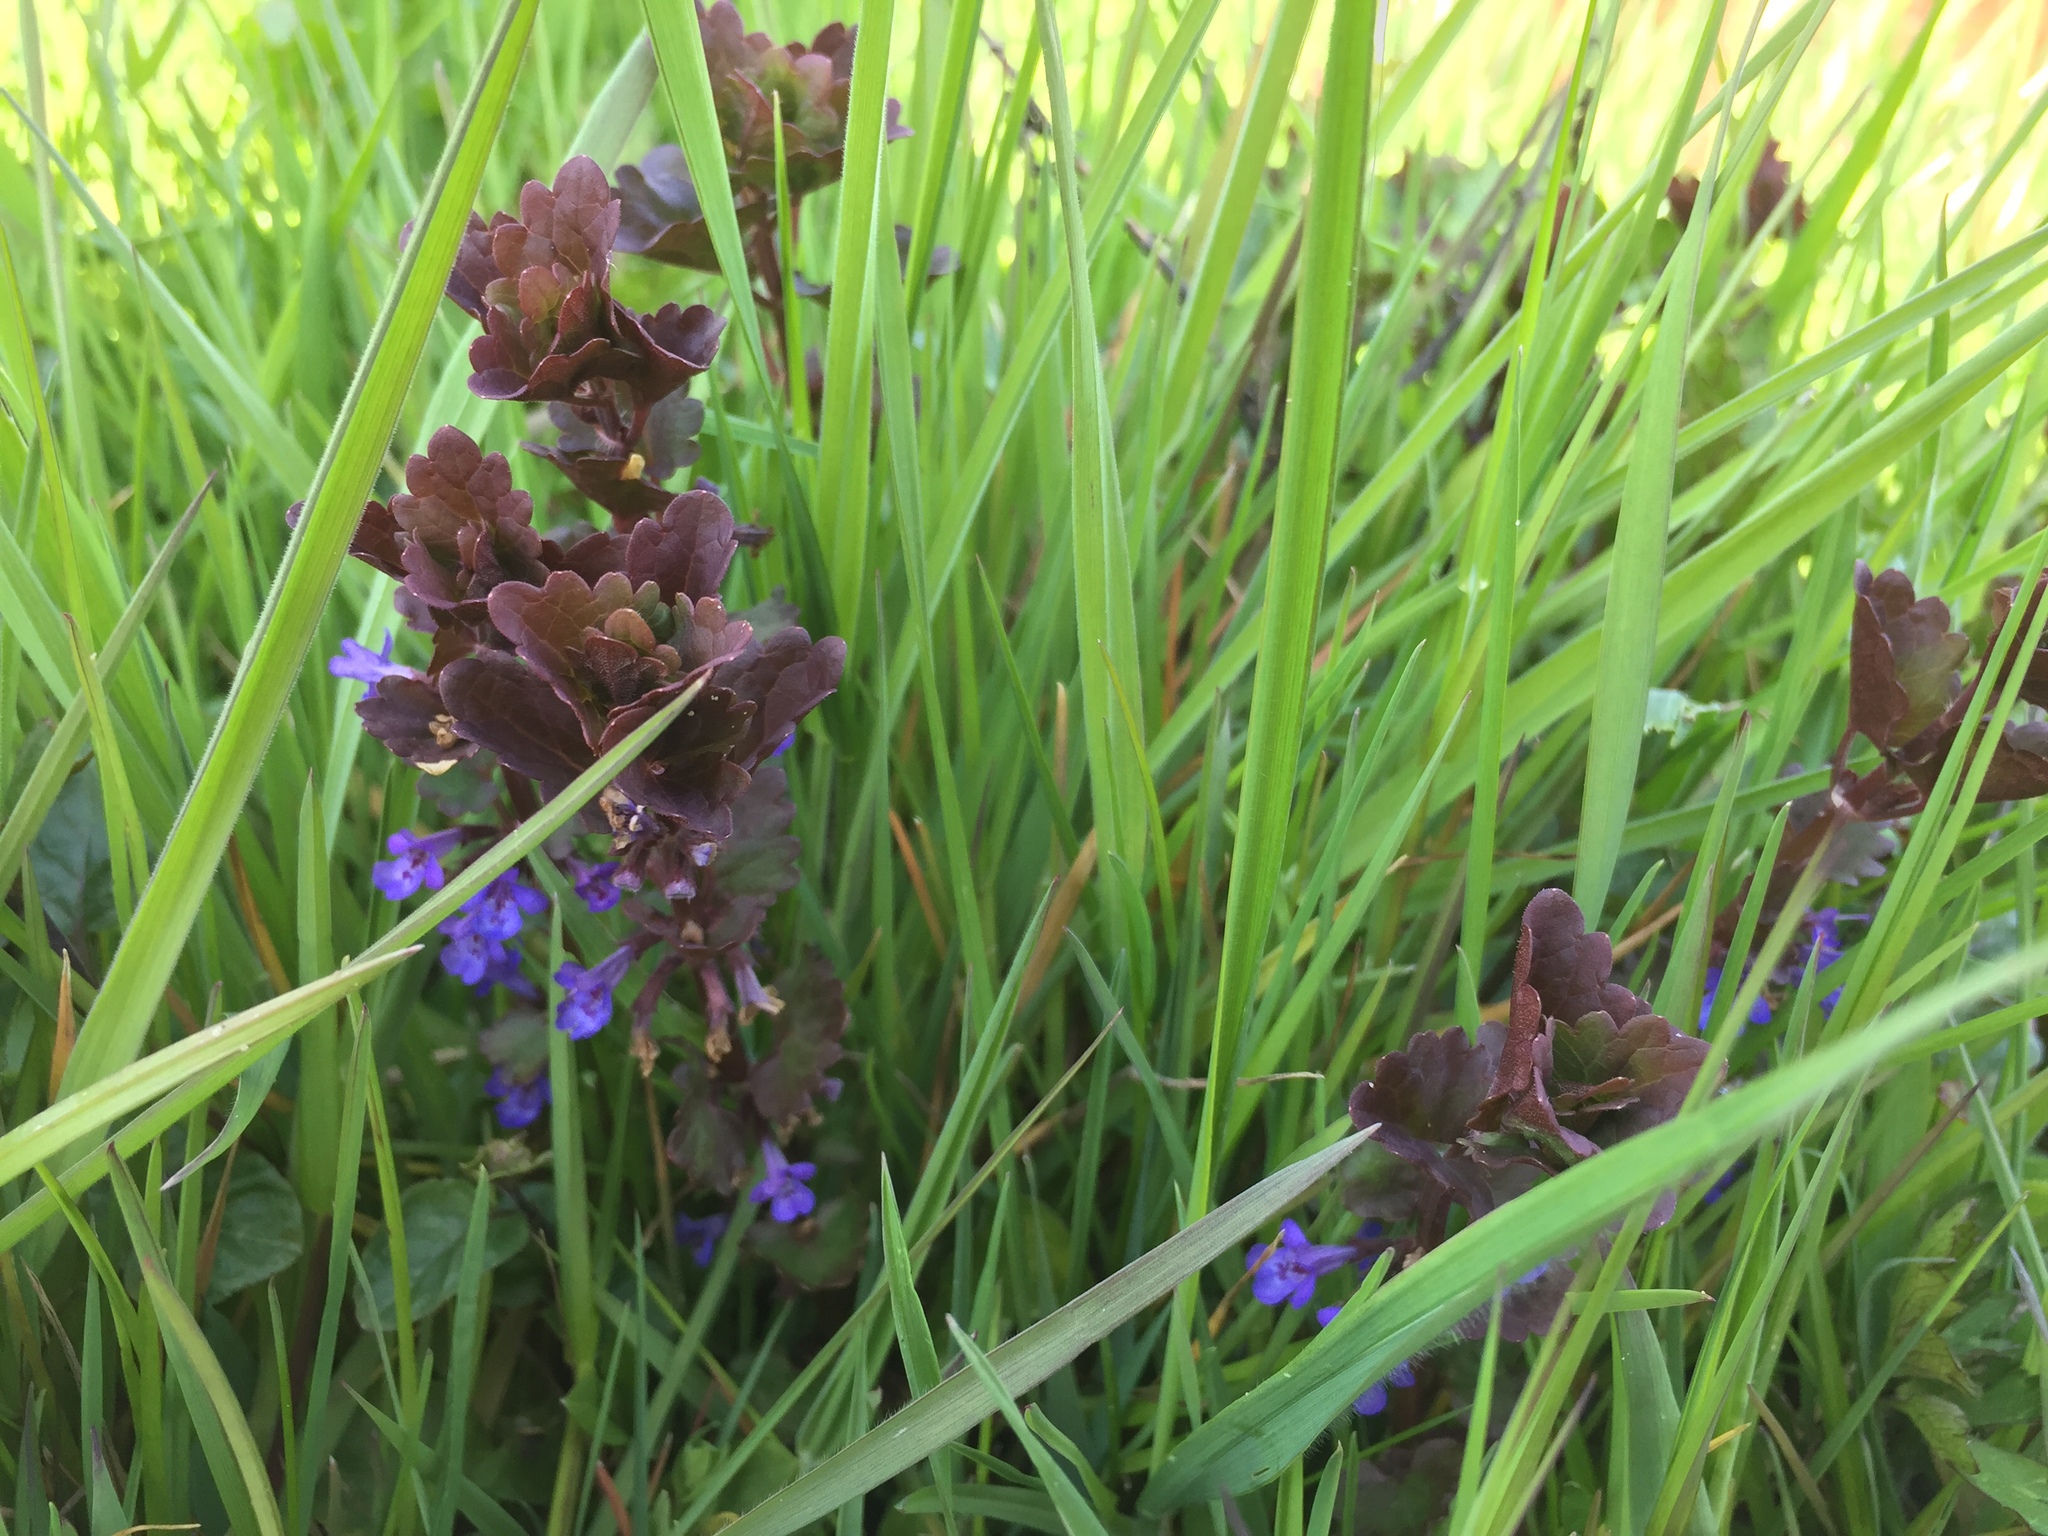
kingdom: Plantae
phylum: Tracheophyta
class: Magnoliopsida
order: Lamiales
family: Lamiaceae
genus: Glechoma
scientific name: Glechoma hederacea
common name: Ground ivy
